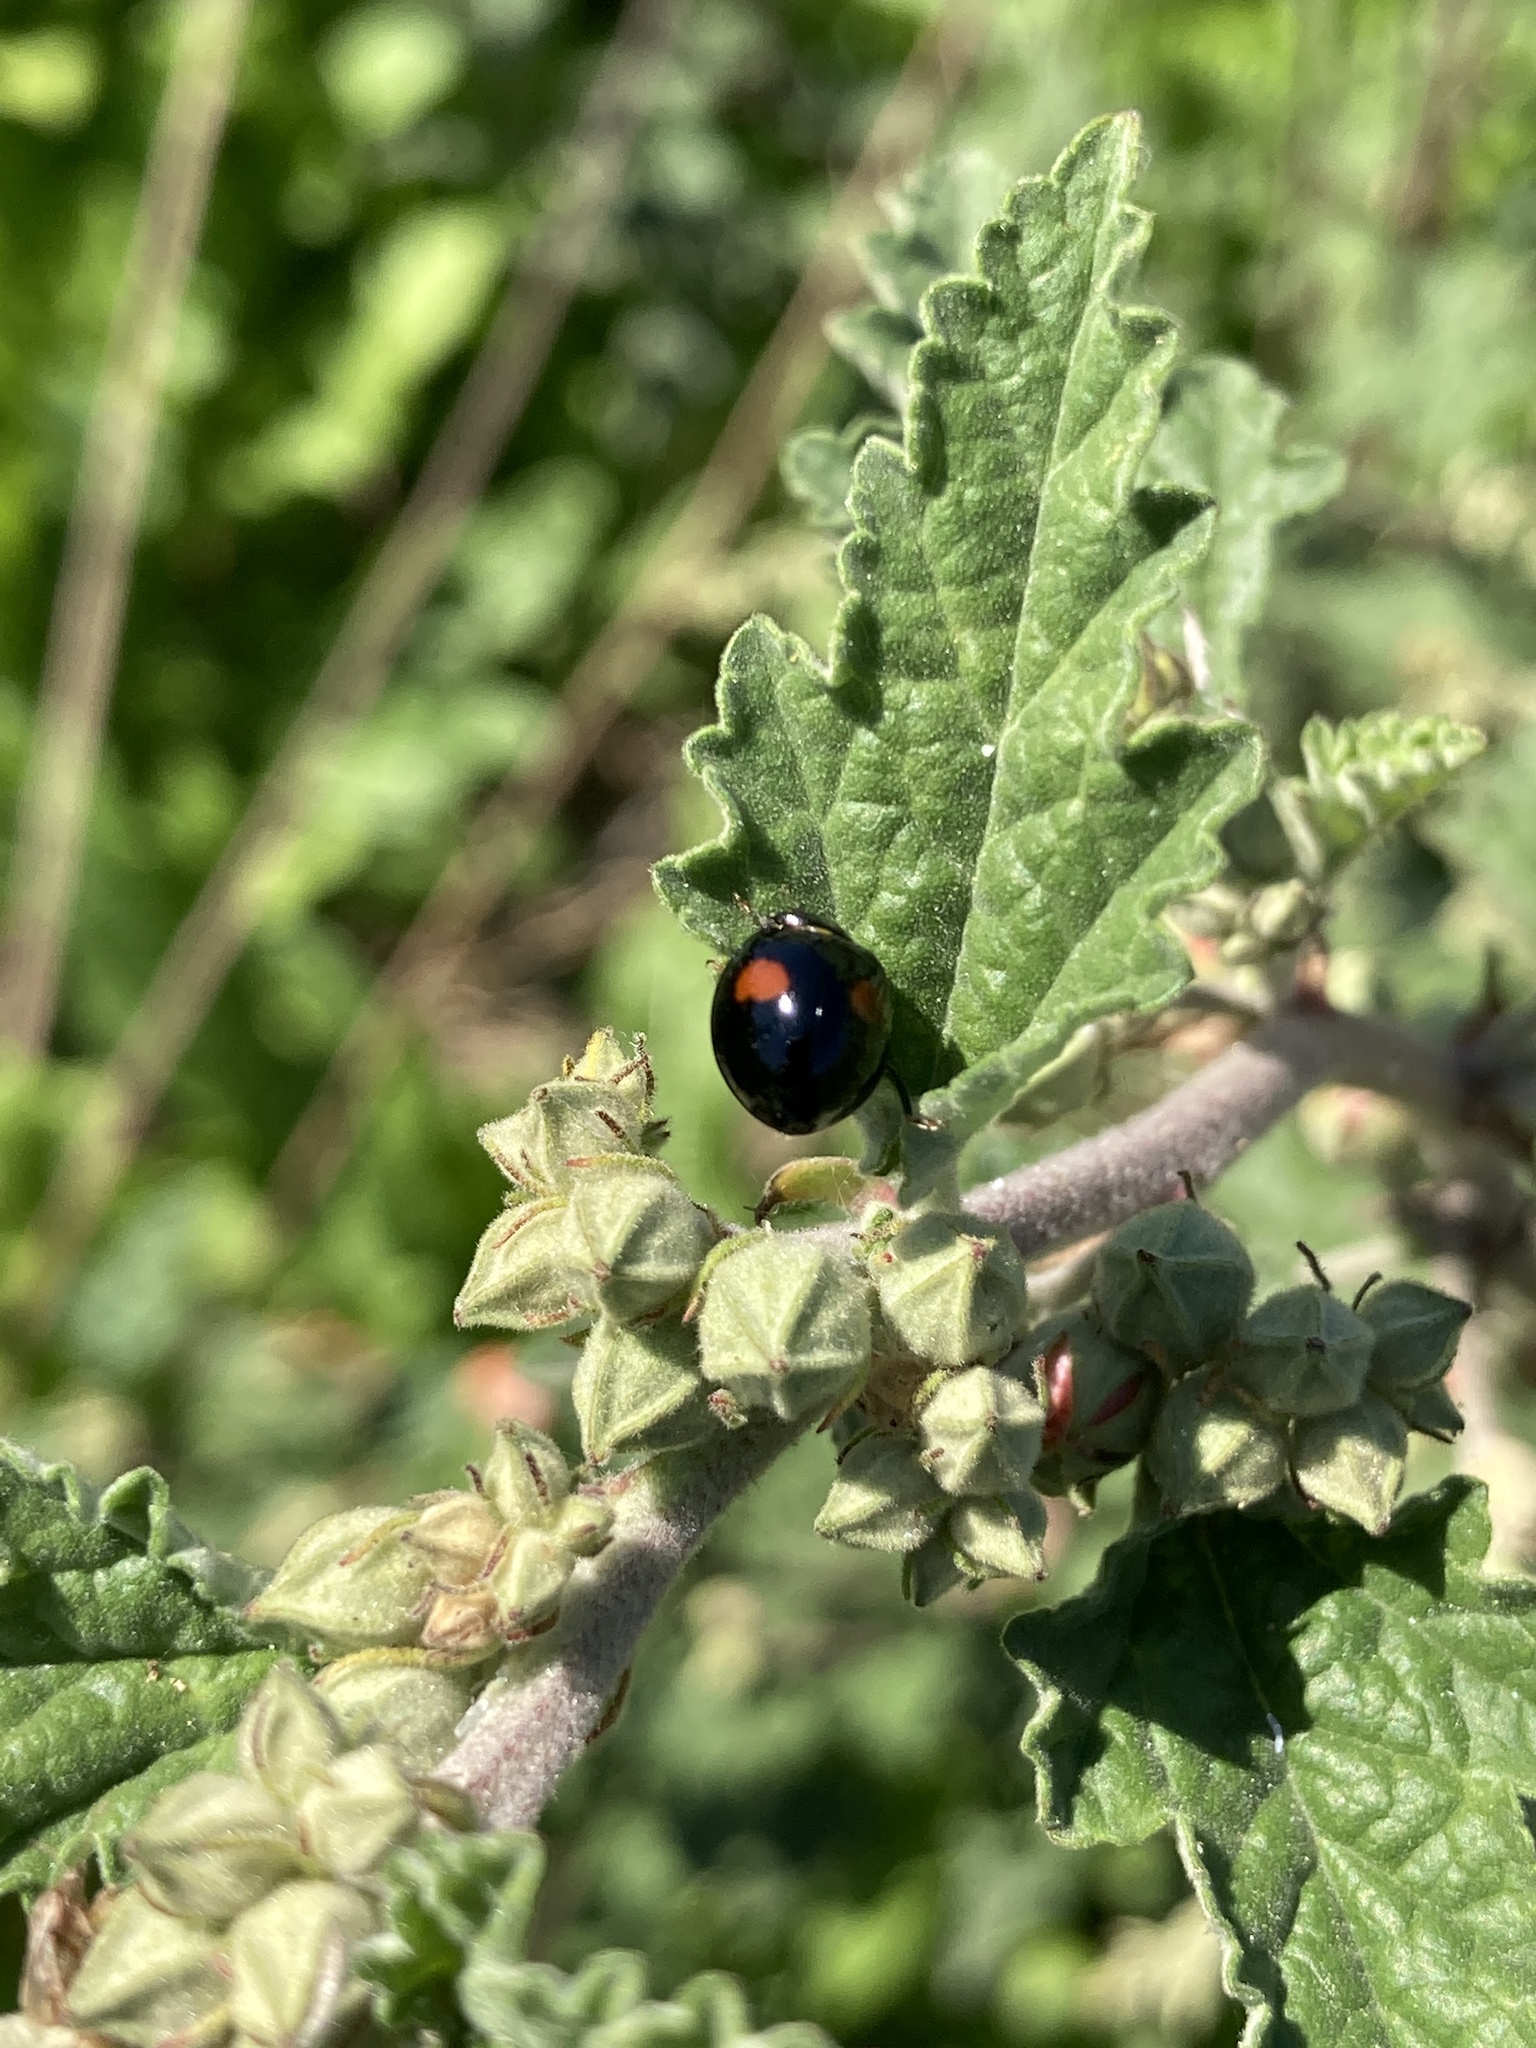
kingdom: Animalia
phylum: Arthropoda
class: Insecta
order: Coleoptera
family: Coccinellidae
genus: Olla
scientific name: Olla v-nigrum
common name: Ashy gray lady beetle
